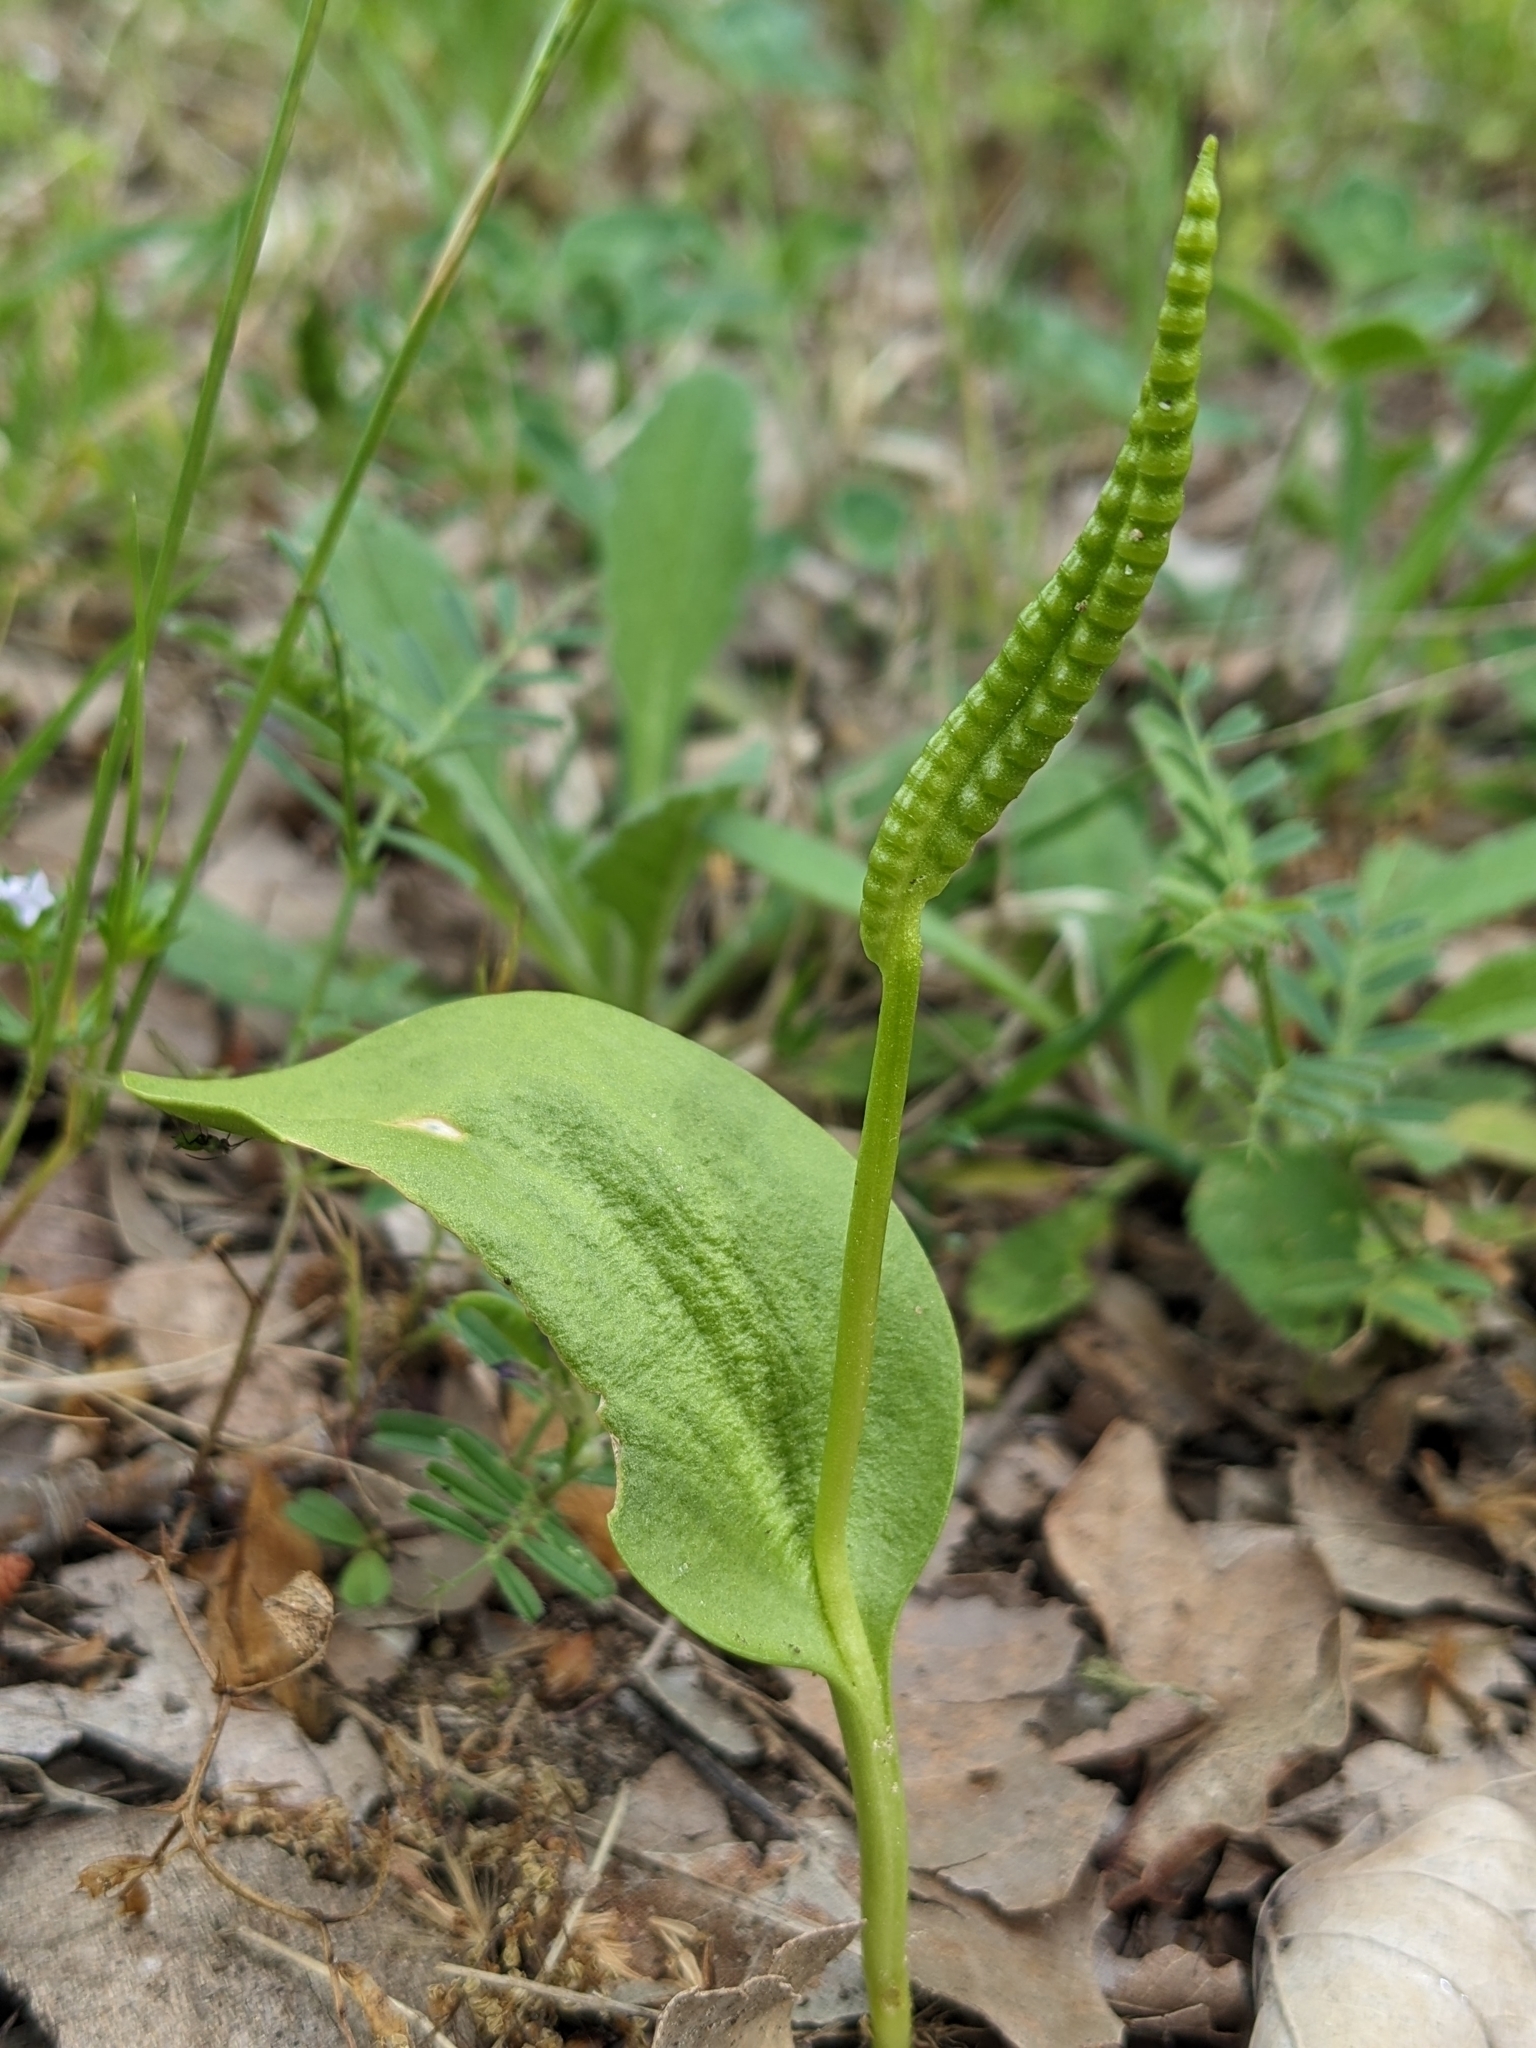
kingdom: Plantae
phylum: Tracheophyta
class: Polypodiopsida
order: Ophioglossales
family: Ophioglossaceae
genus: Ophioglossum
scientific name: Ophioglossum vulgatum
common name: Adder's-tongue
